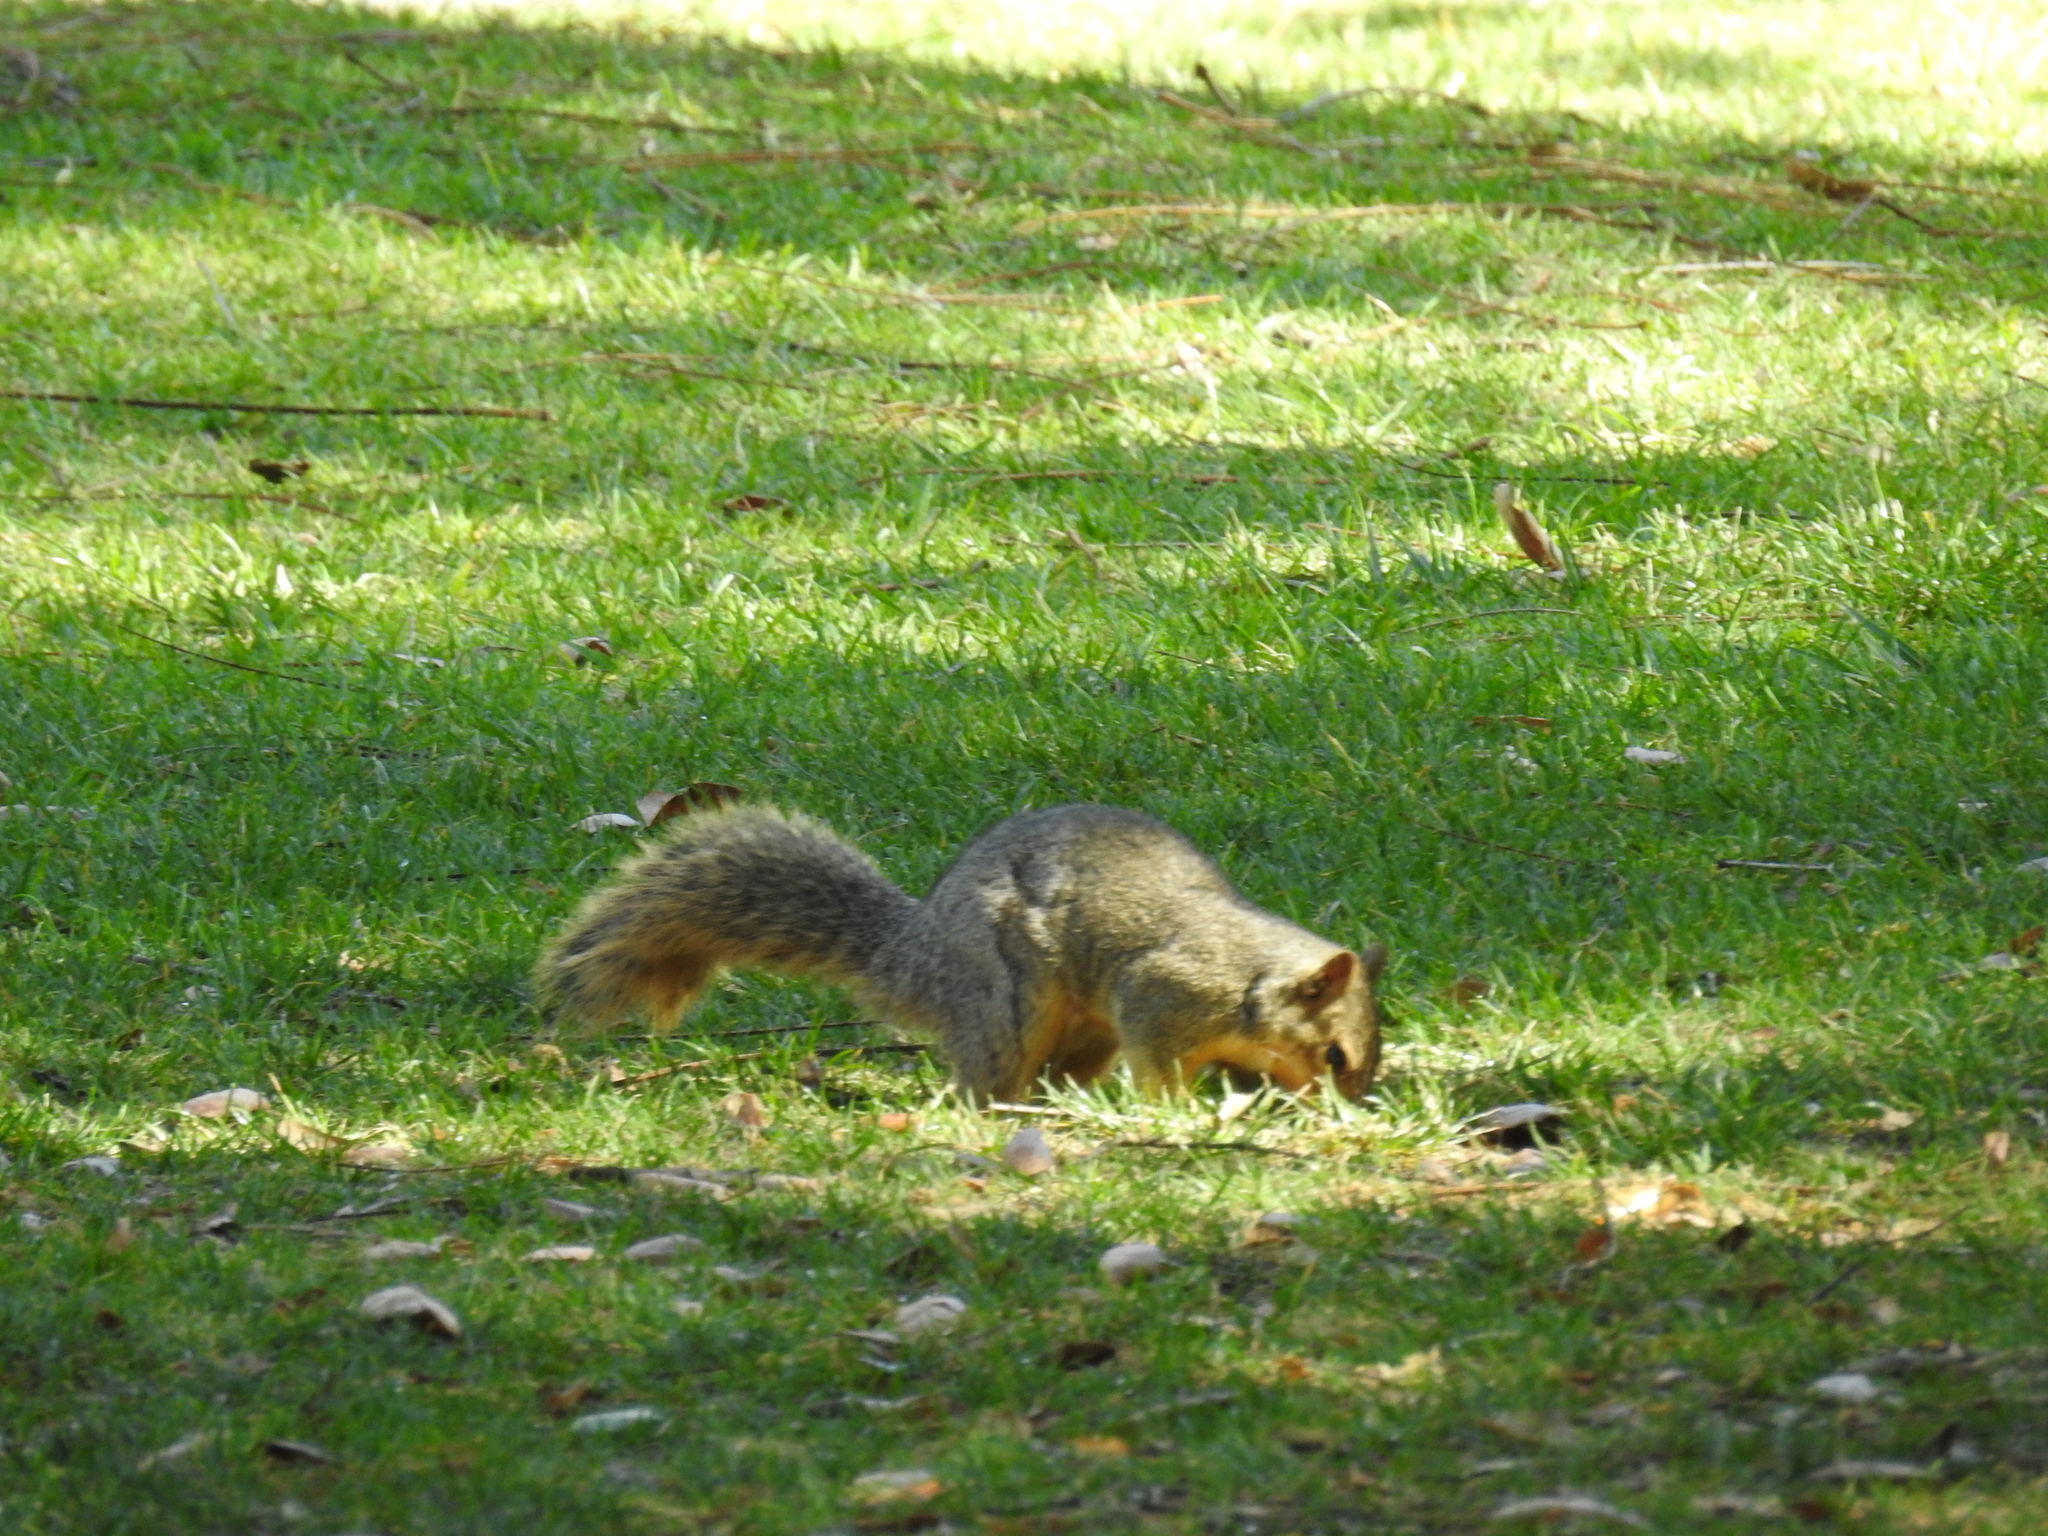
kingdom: Animalia
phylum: Chordata
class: Mammalia
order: Rodentia
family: Sciuridae
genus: Sciurus
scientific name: Sciurus niger
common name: Fox squirrel
